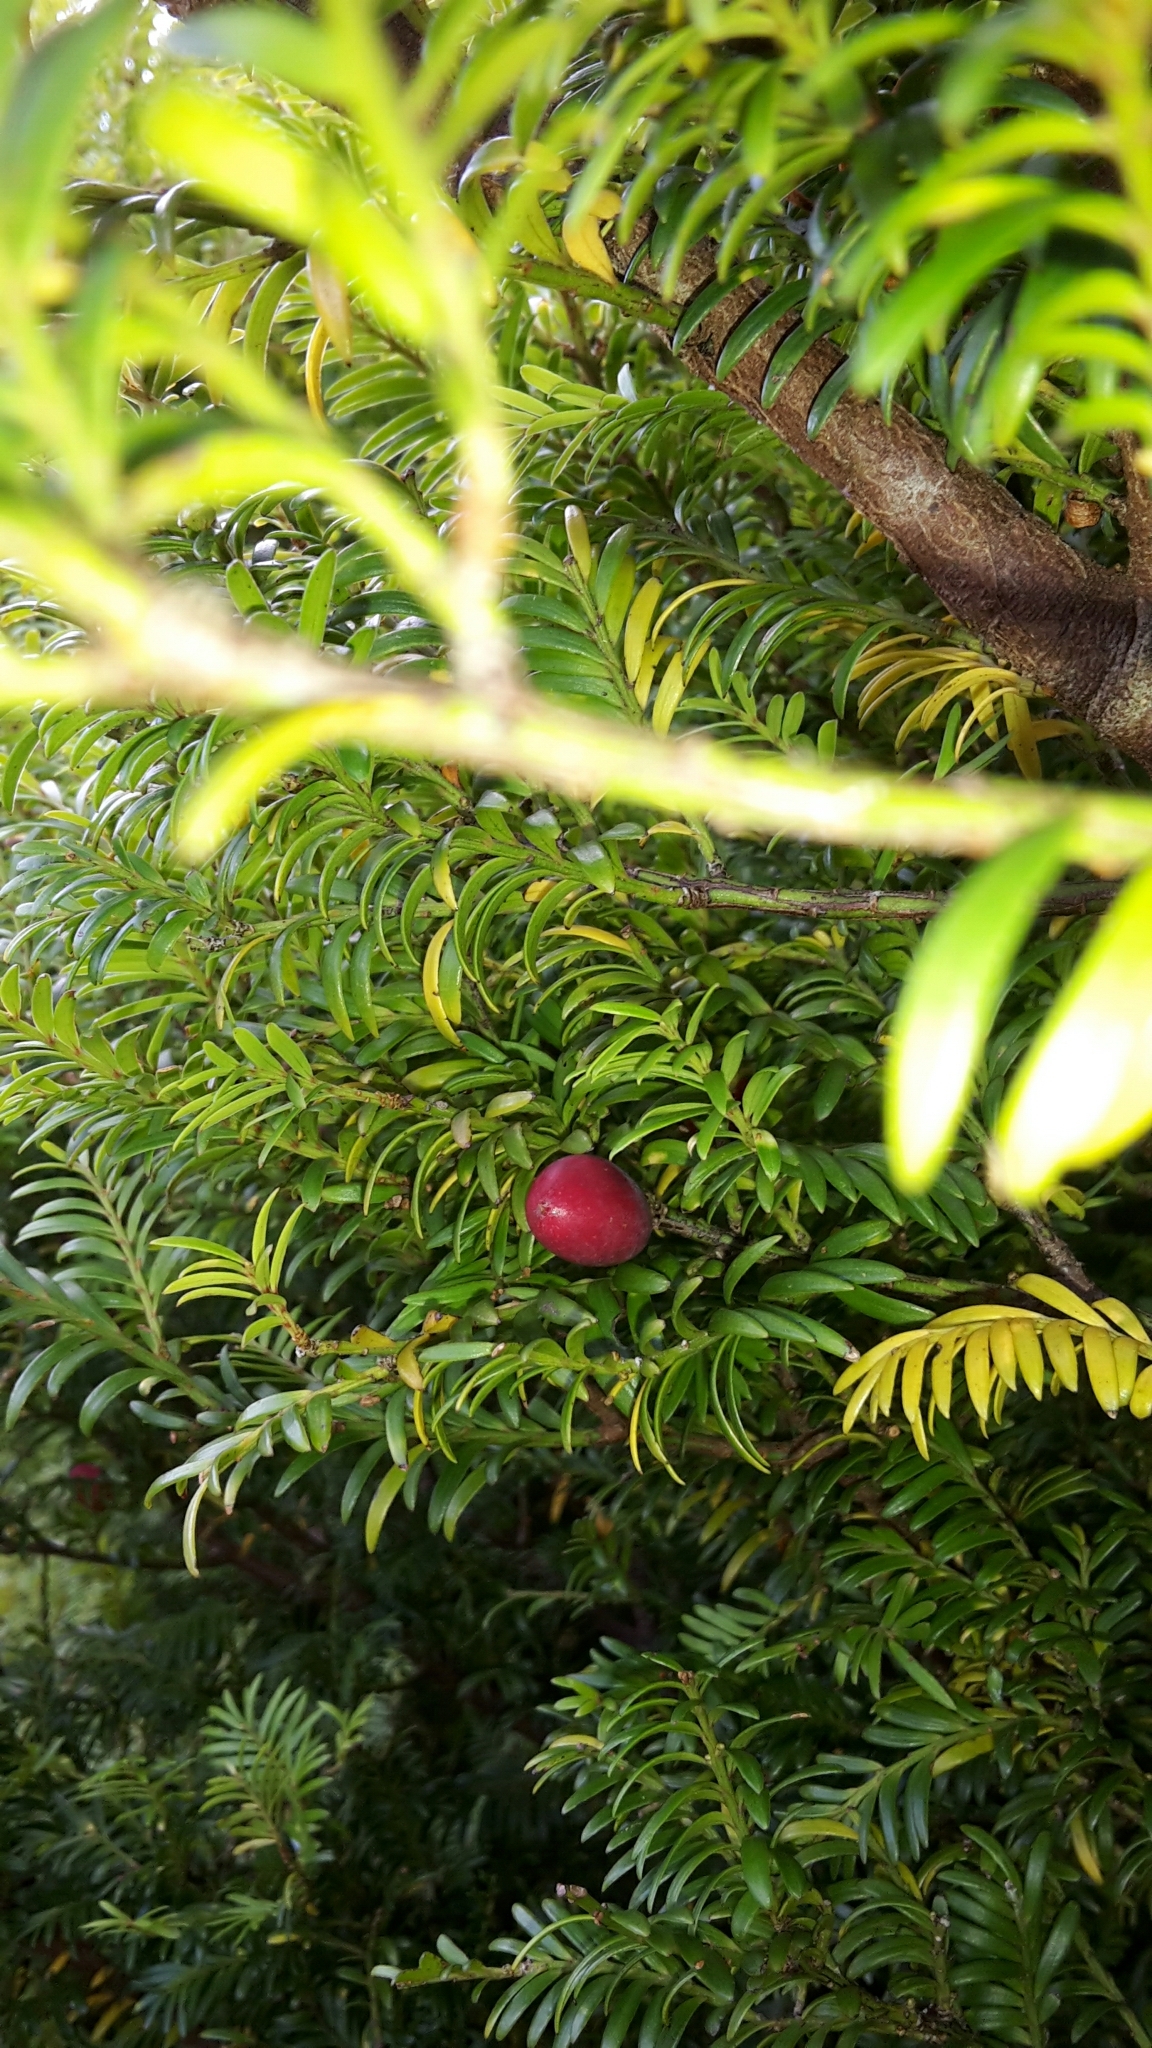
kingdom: Plantae
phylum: Tracheophyta
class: Pinopsida
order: Pinales
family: Podocarpaceae
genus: Prumnopitys
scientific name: Prumnopitys ferruginea
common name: Brown pine
